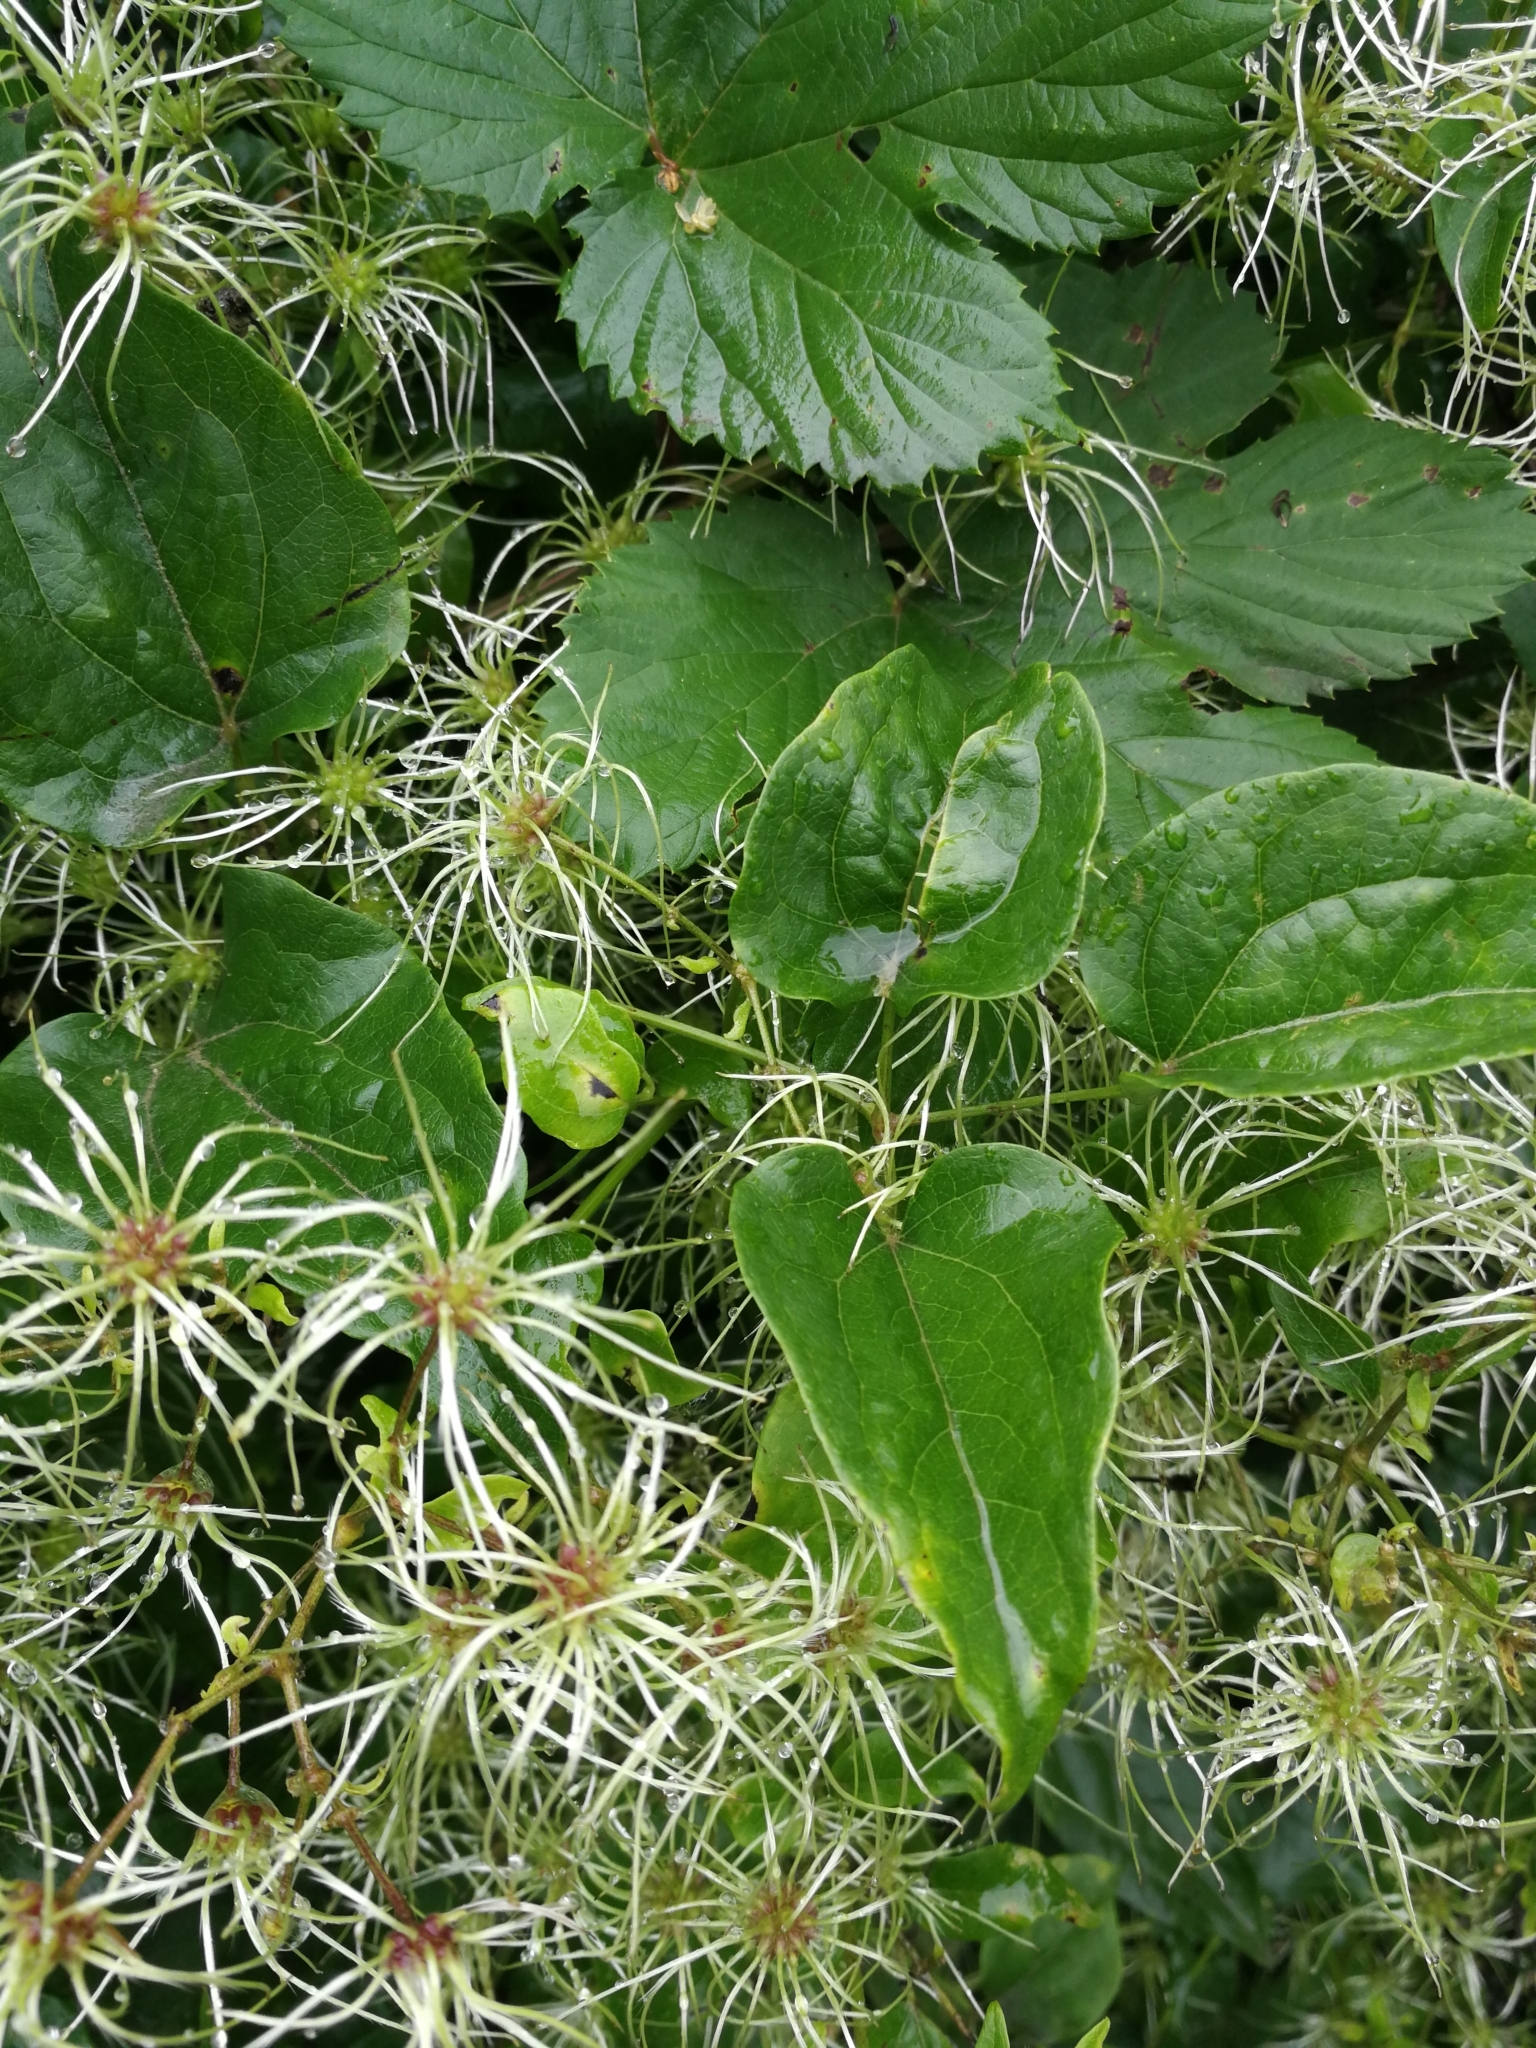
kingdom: Plantae
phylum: Tracheophyta
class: Magnoliopsida
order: Ranunculales
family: Ranunculaceae
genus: Clematis
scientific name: Clematis vitalba
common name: Evergreen clematis
